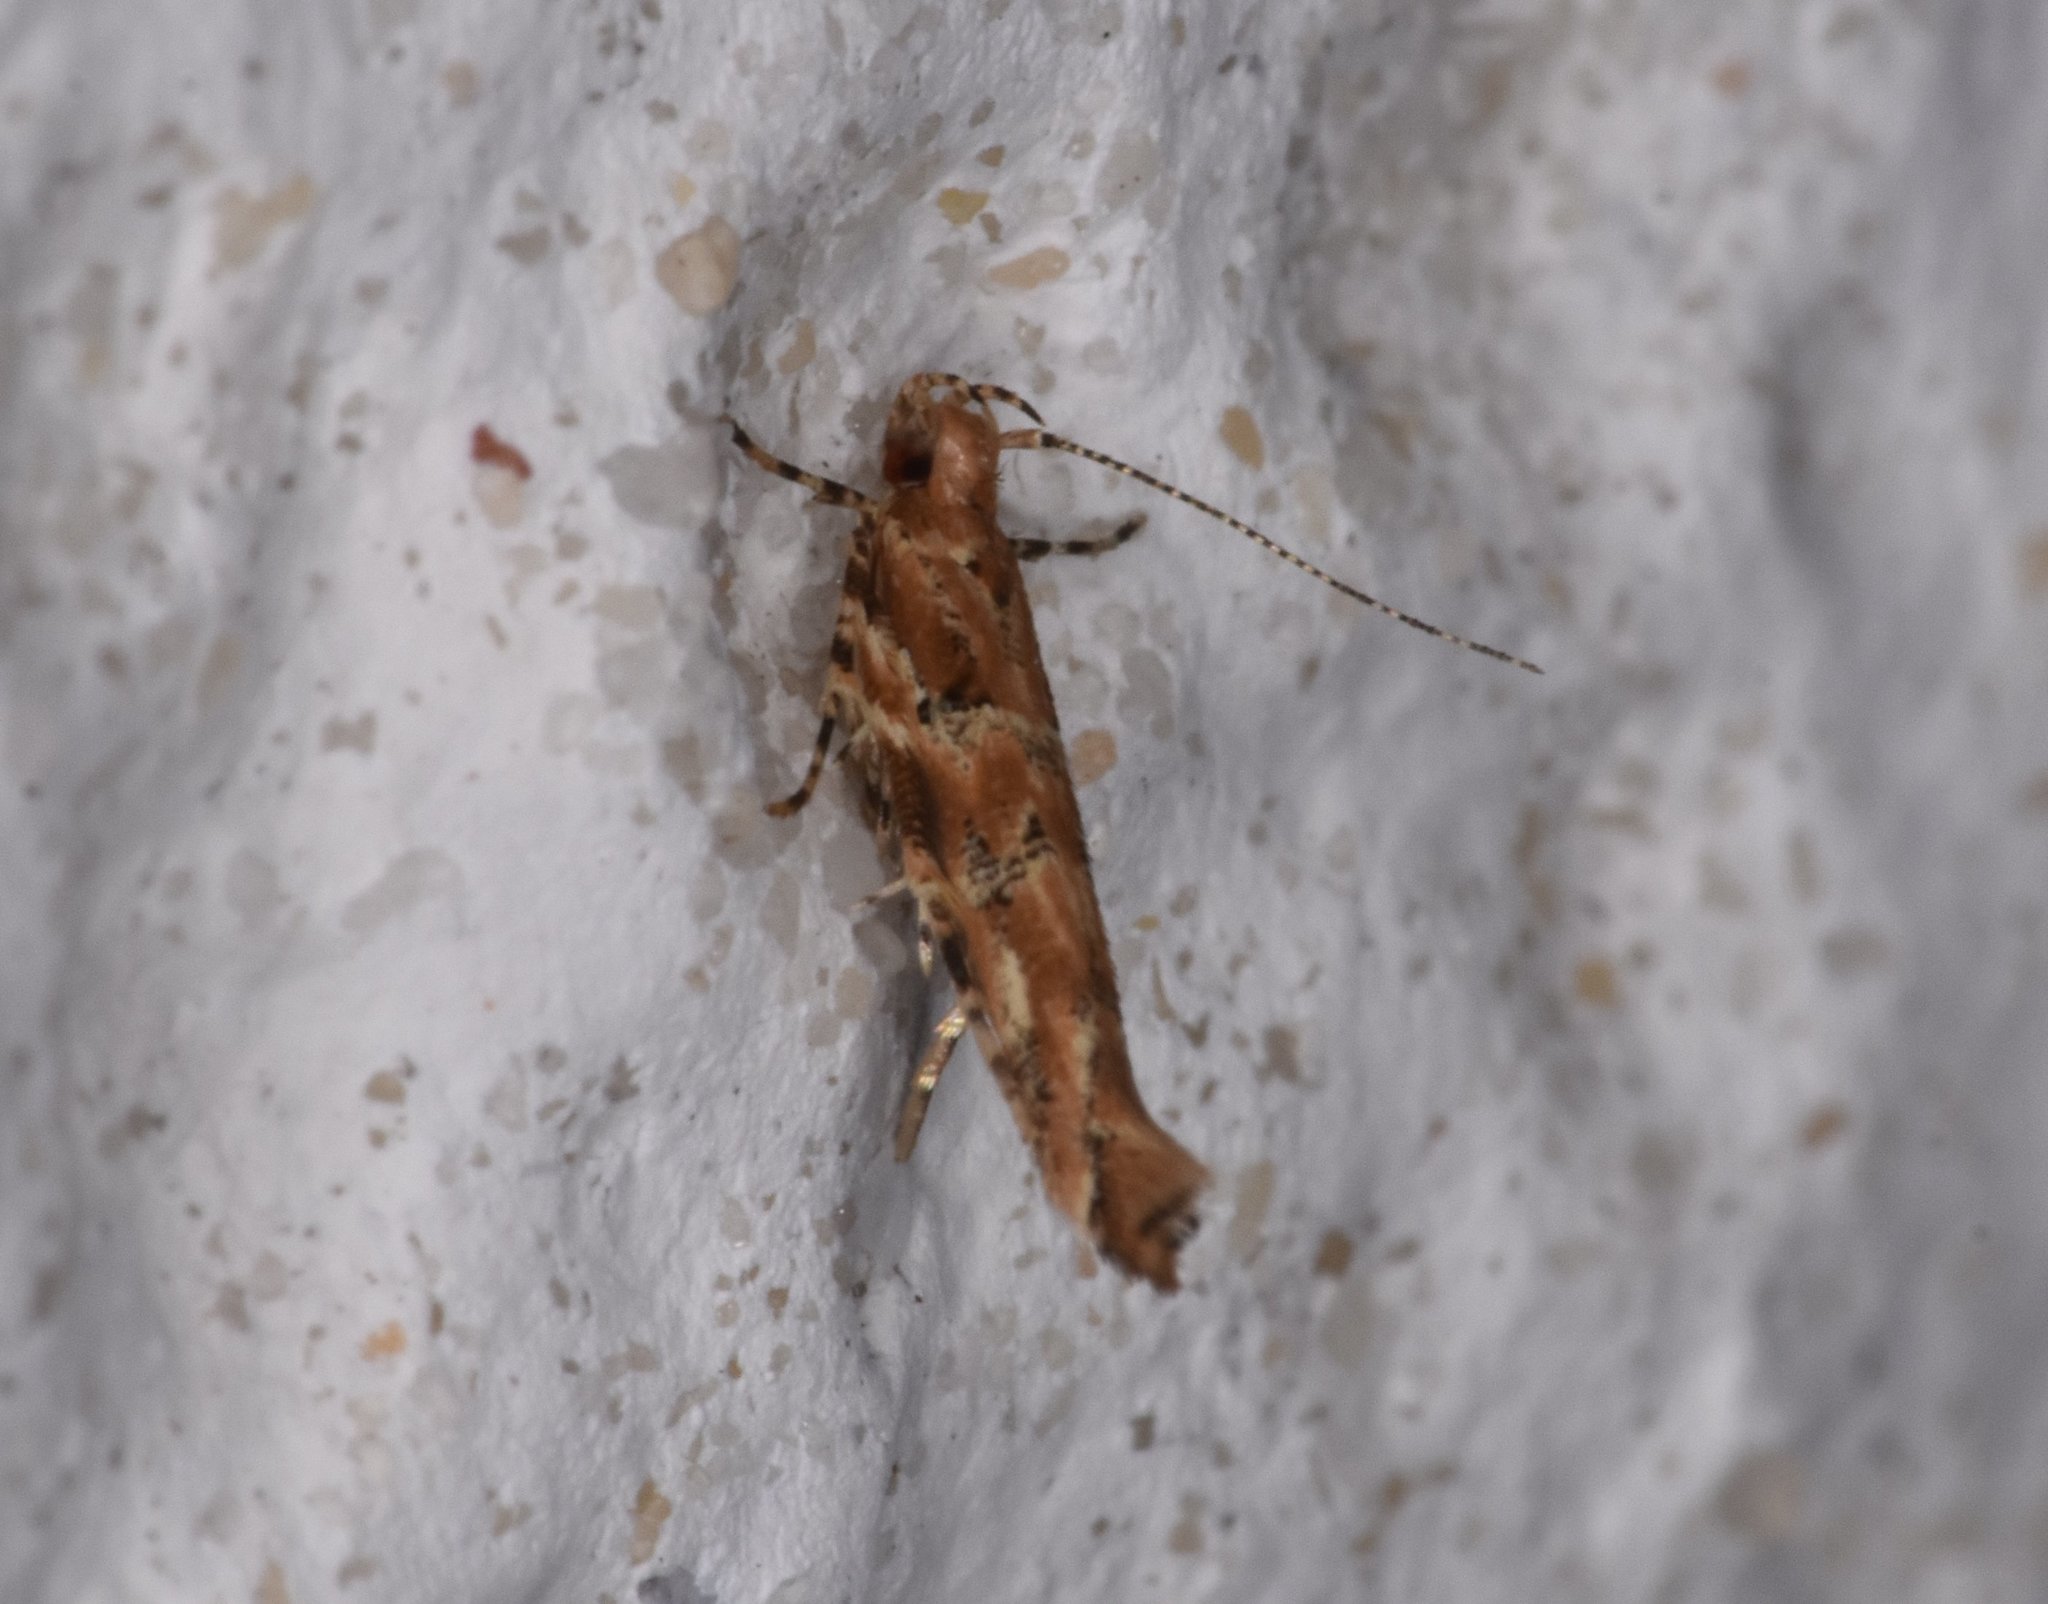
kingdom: Animalia
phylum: Arthropoda
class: Insecta
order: Lepidoptera
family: Cosmopterigidae
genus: Anatrachyntis
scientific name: Anatrachyntis badia
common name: Moth
